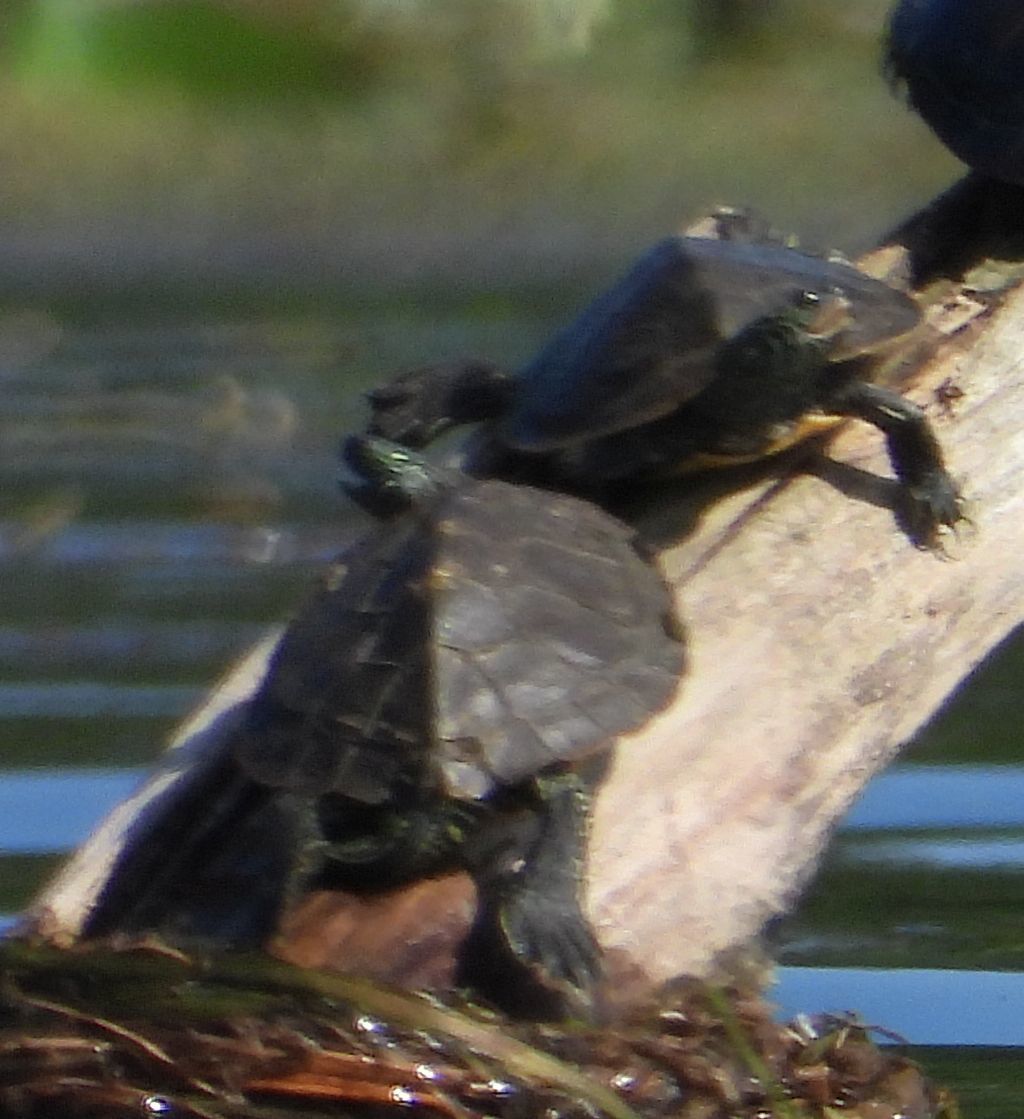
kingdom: Animalia
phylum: Chordata
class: Testudines
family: Emydidae
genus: Graptemys
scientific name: Graptemys geographica
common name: Common map turtle
